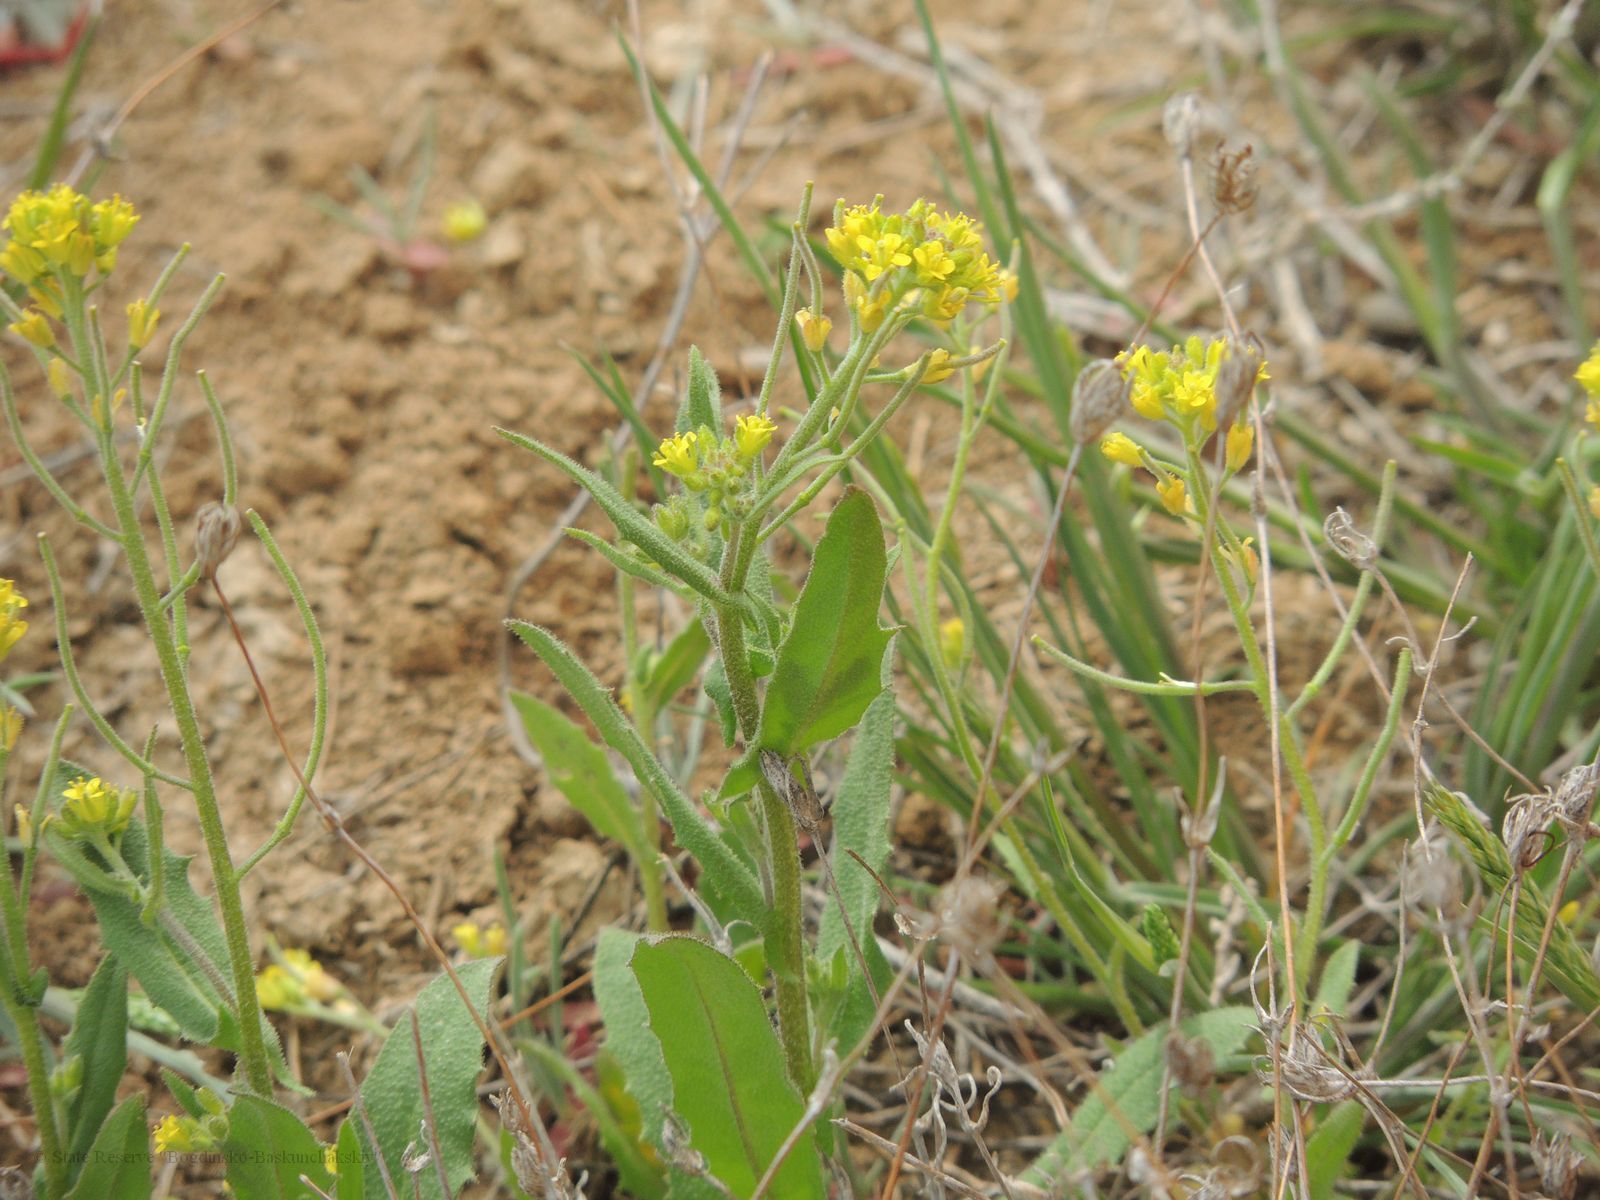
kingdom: Plantae
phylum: Tracheophyta
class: Magnoliopsida
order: Brassicales
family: Brassicaceae
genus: Sisymbrium
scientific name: Sisymbrium pumilum
